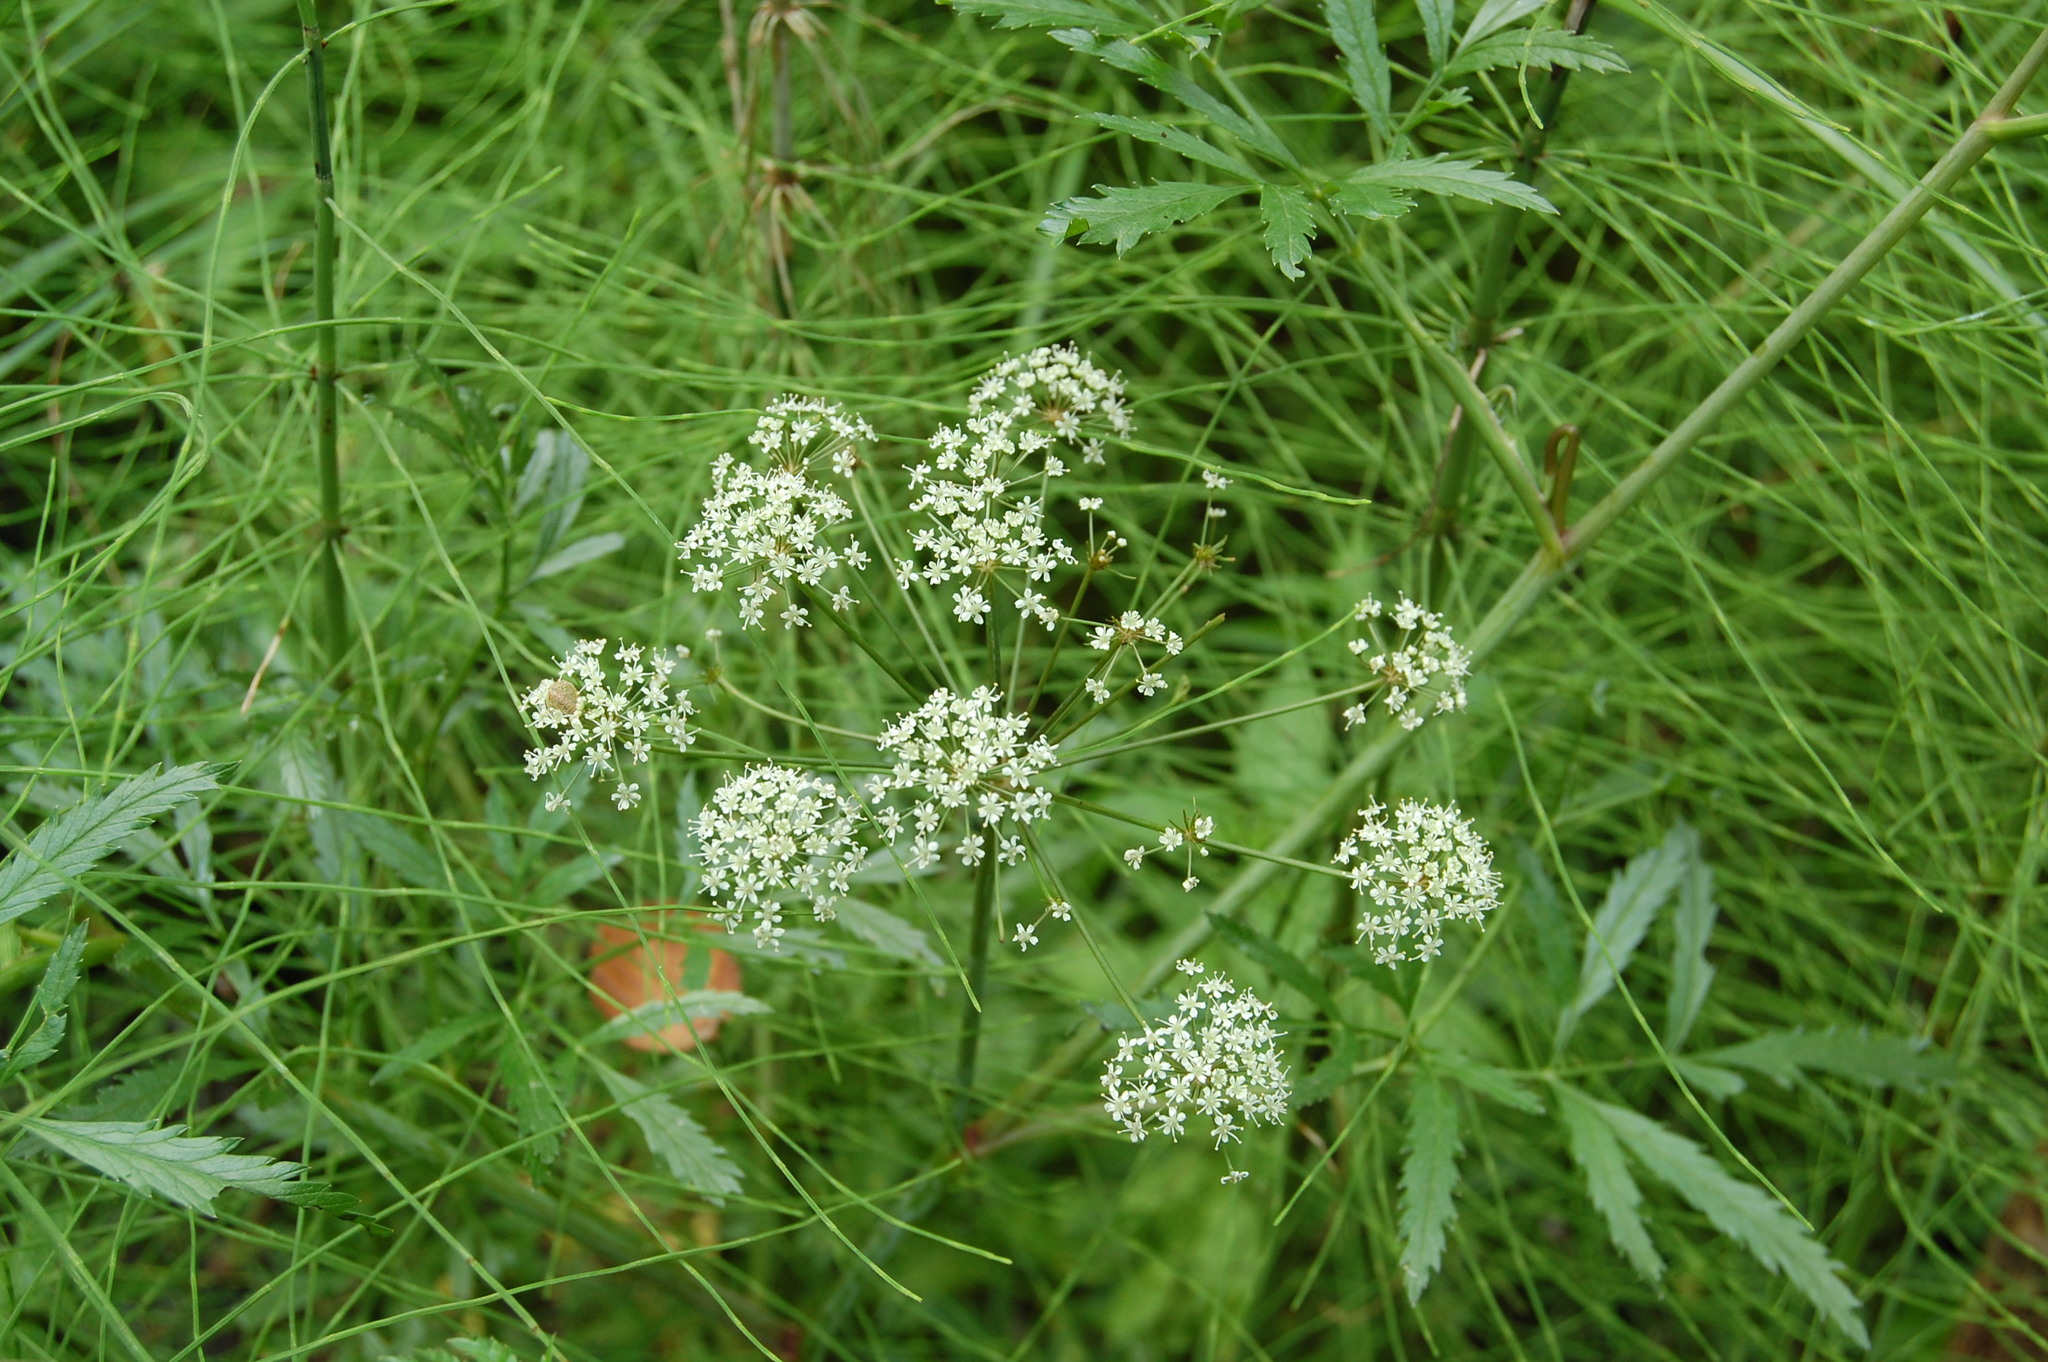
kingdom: Plantae
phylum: Tracheophyta
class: Magnoliopsida
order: Apiales
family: Apiaceae
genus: Cicuta
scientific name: Cicuta virosa
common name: Cowbane
